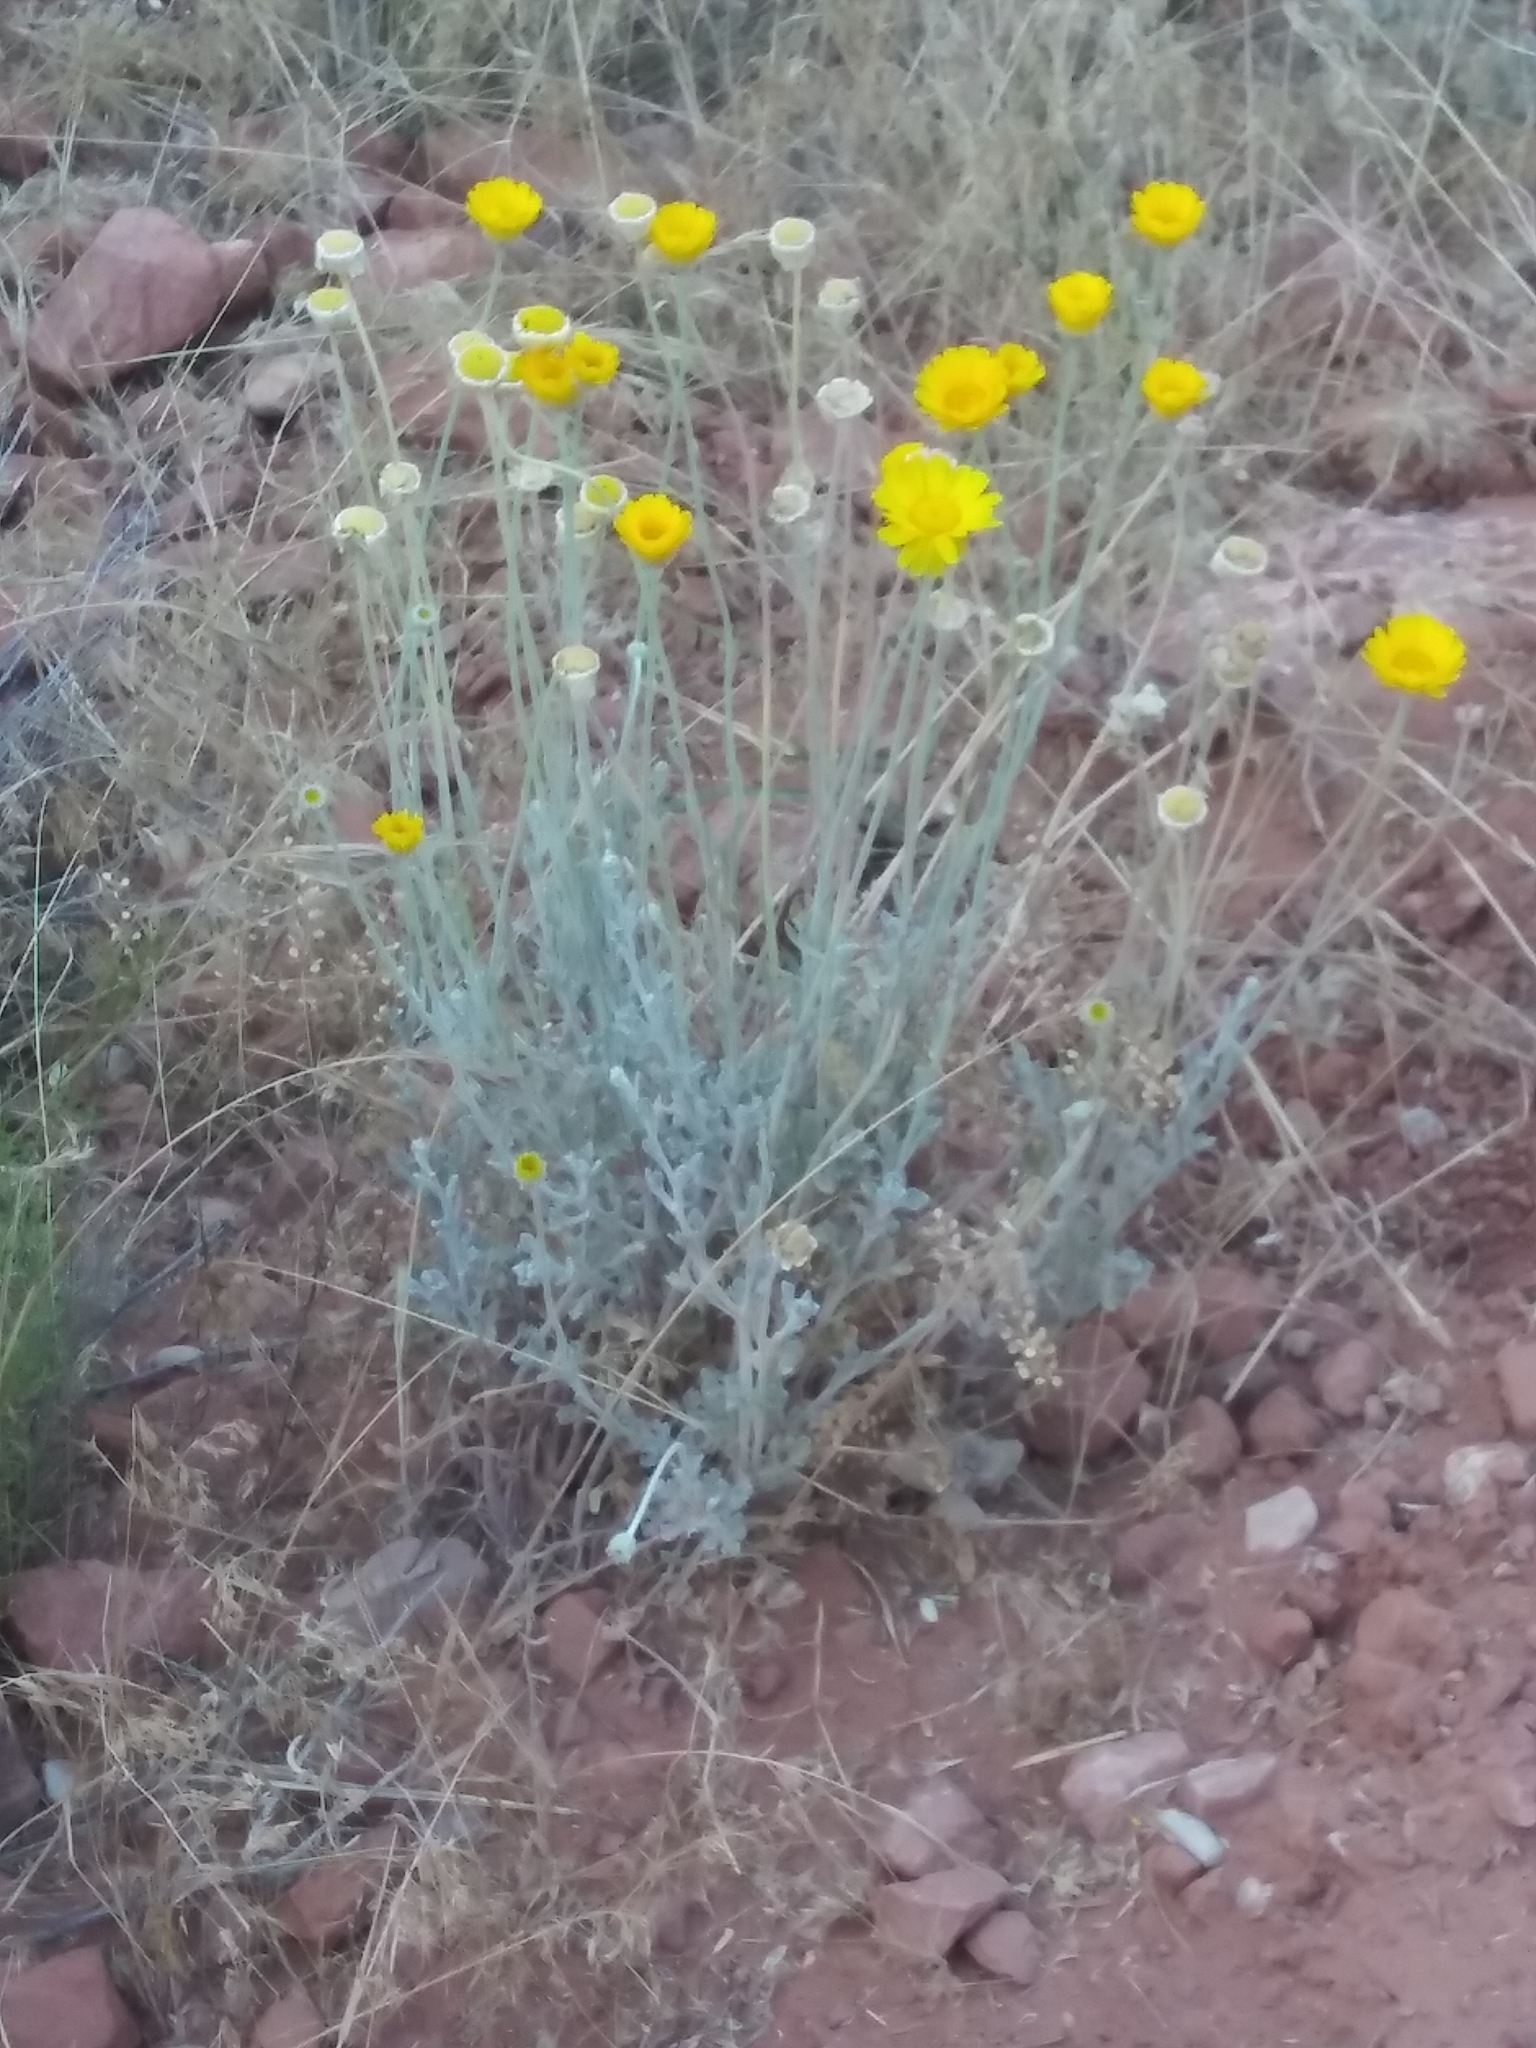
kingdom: Plantae
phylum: Tracheophyta
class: Magnoliopsida
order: Asterales
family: Asteraceae
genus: Baileya
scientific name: Baileya multiradiata
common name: Desert-marigold
